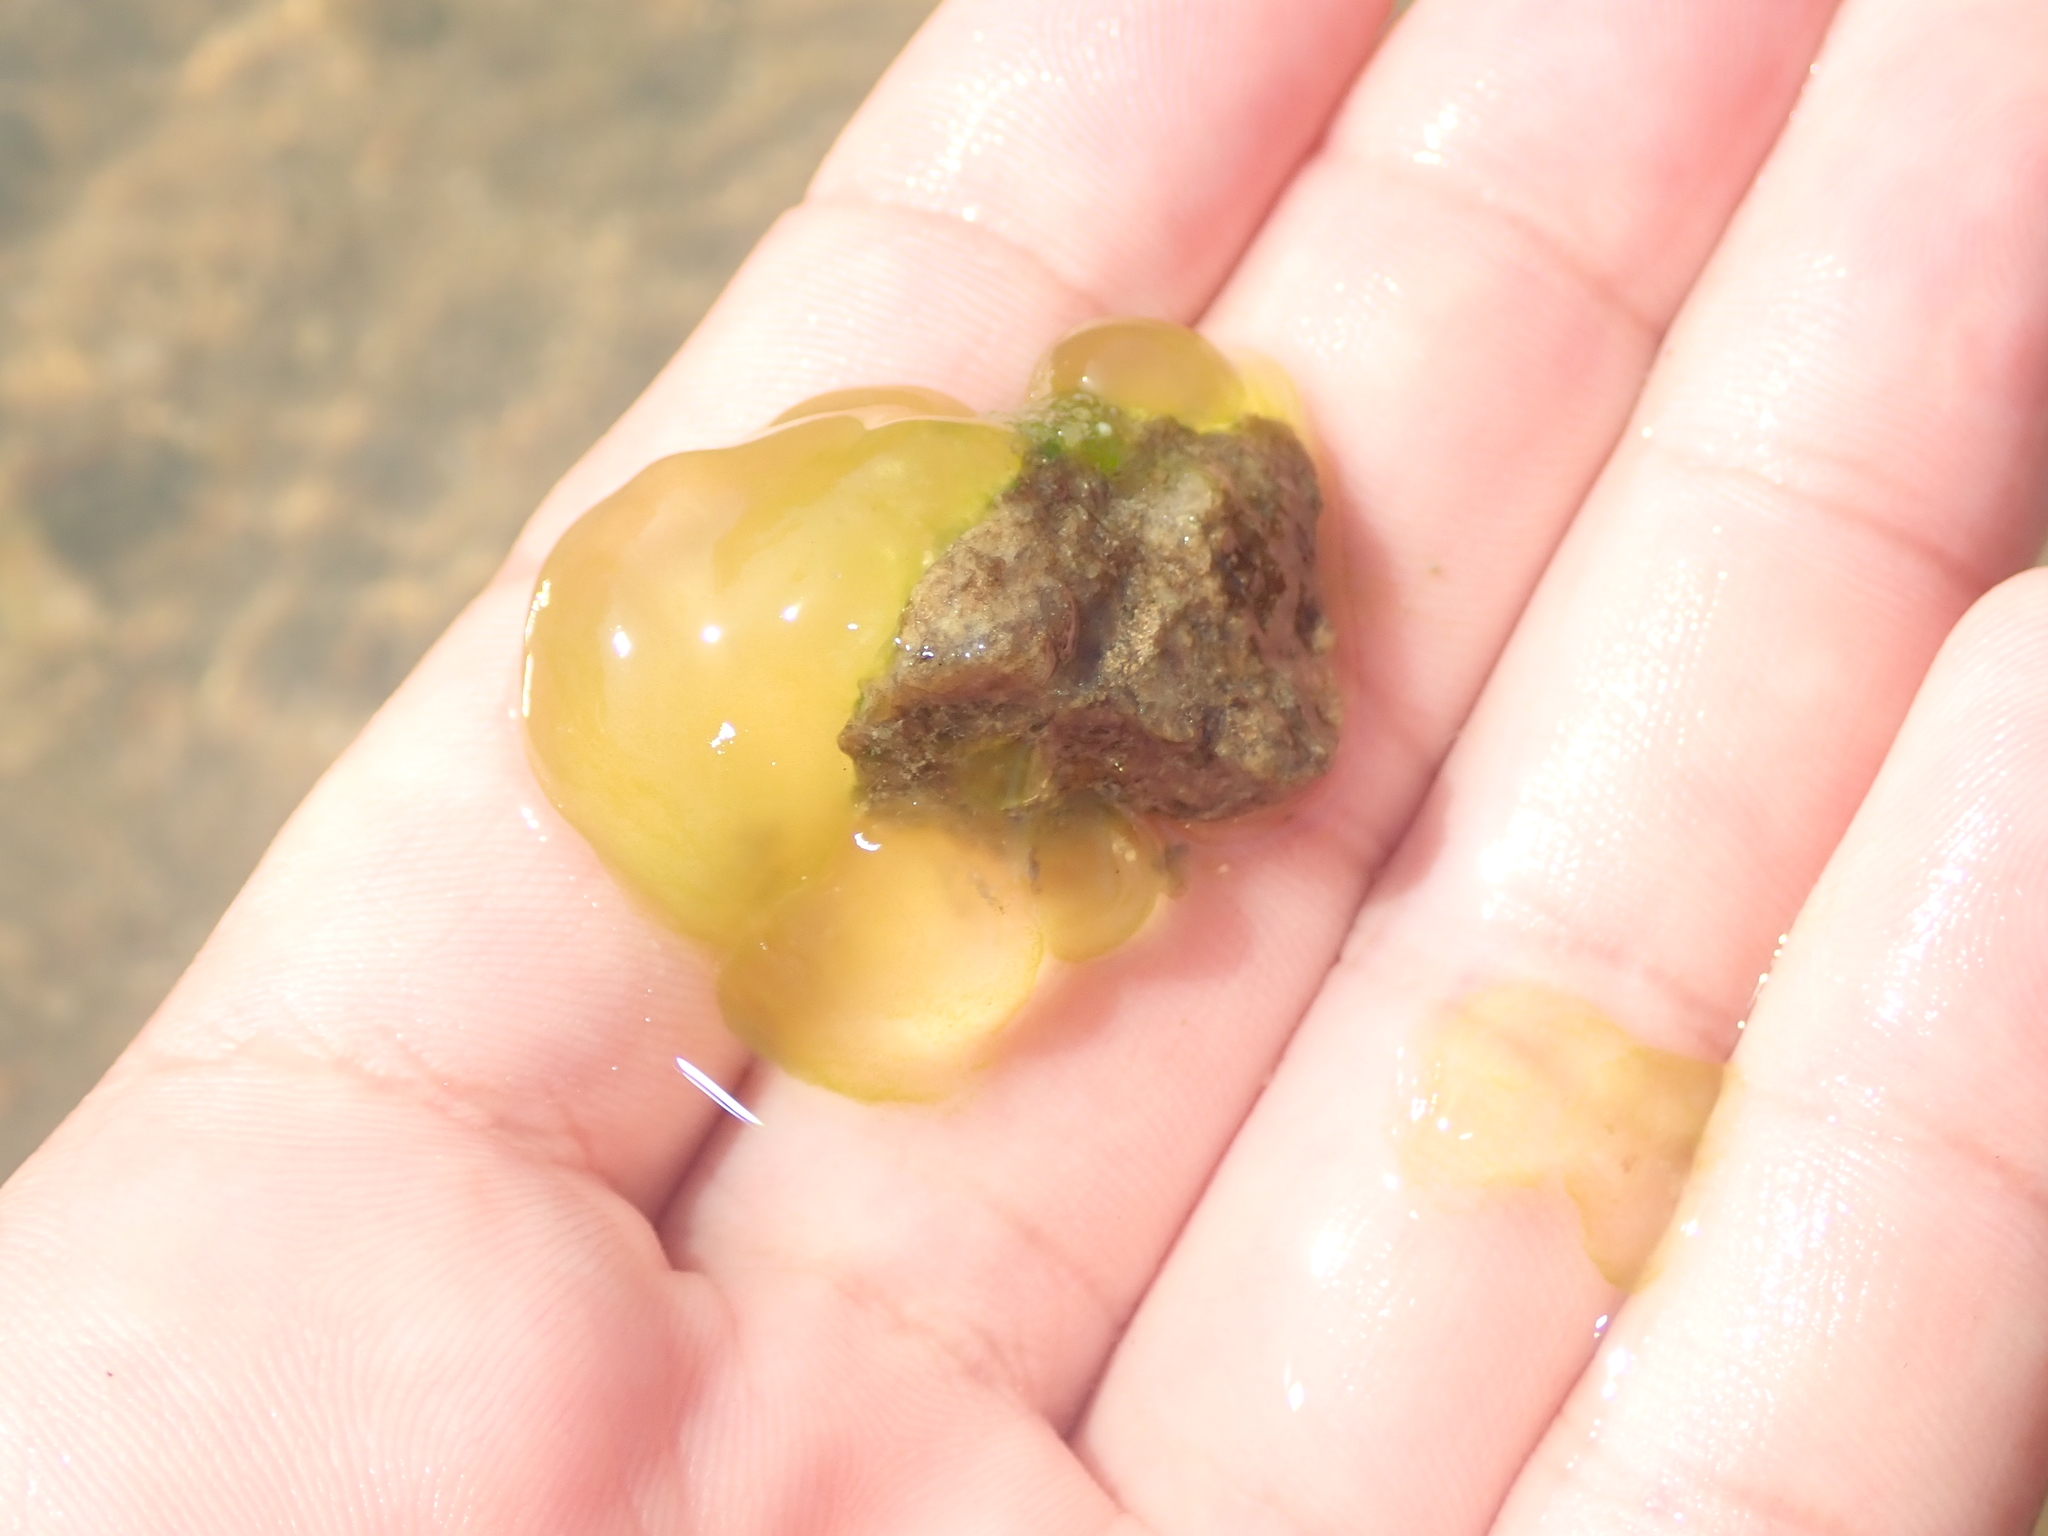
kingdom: Chromista
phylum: Ciliophora
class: Oligohymenophorea
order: Peritrichida
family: Ophrydiidae
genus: Ophrydium
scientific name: Ophrydium
